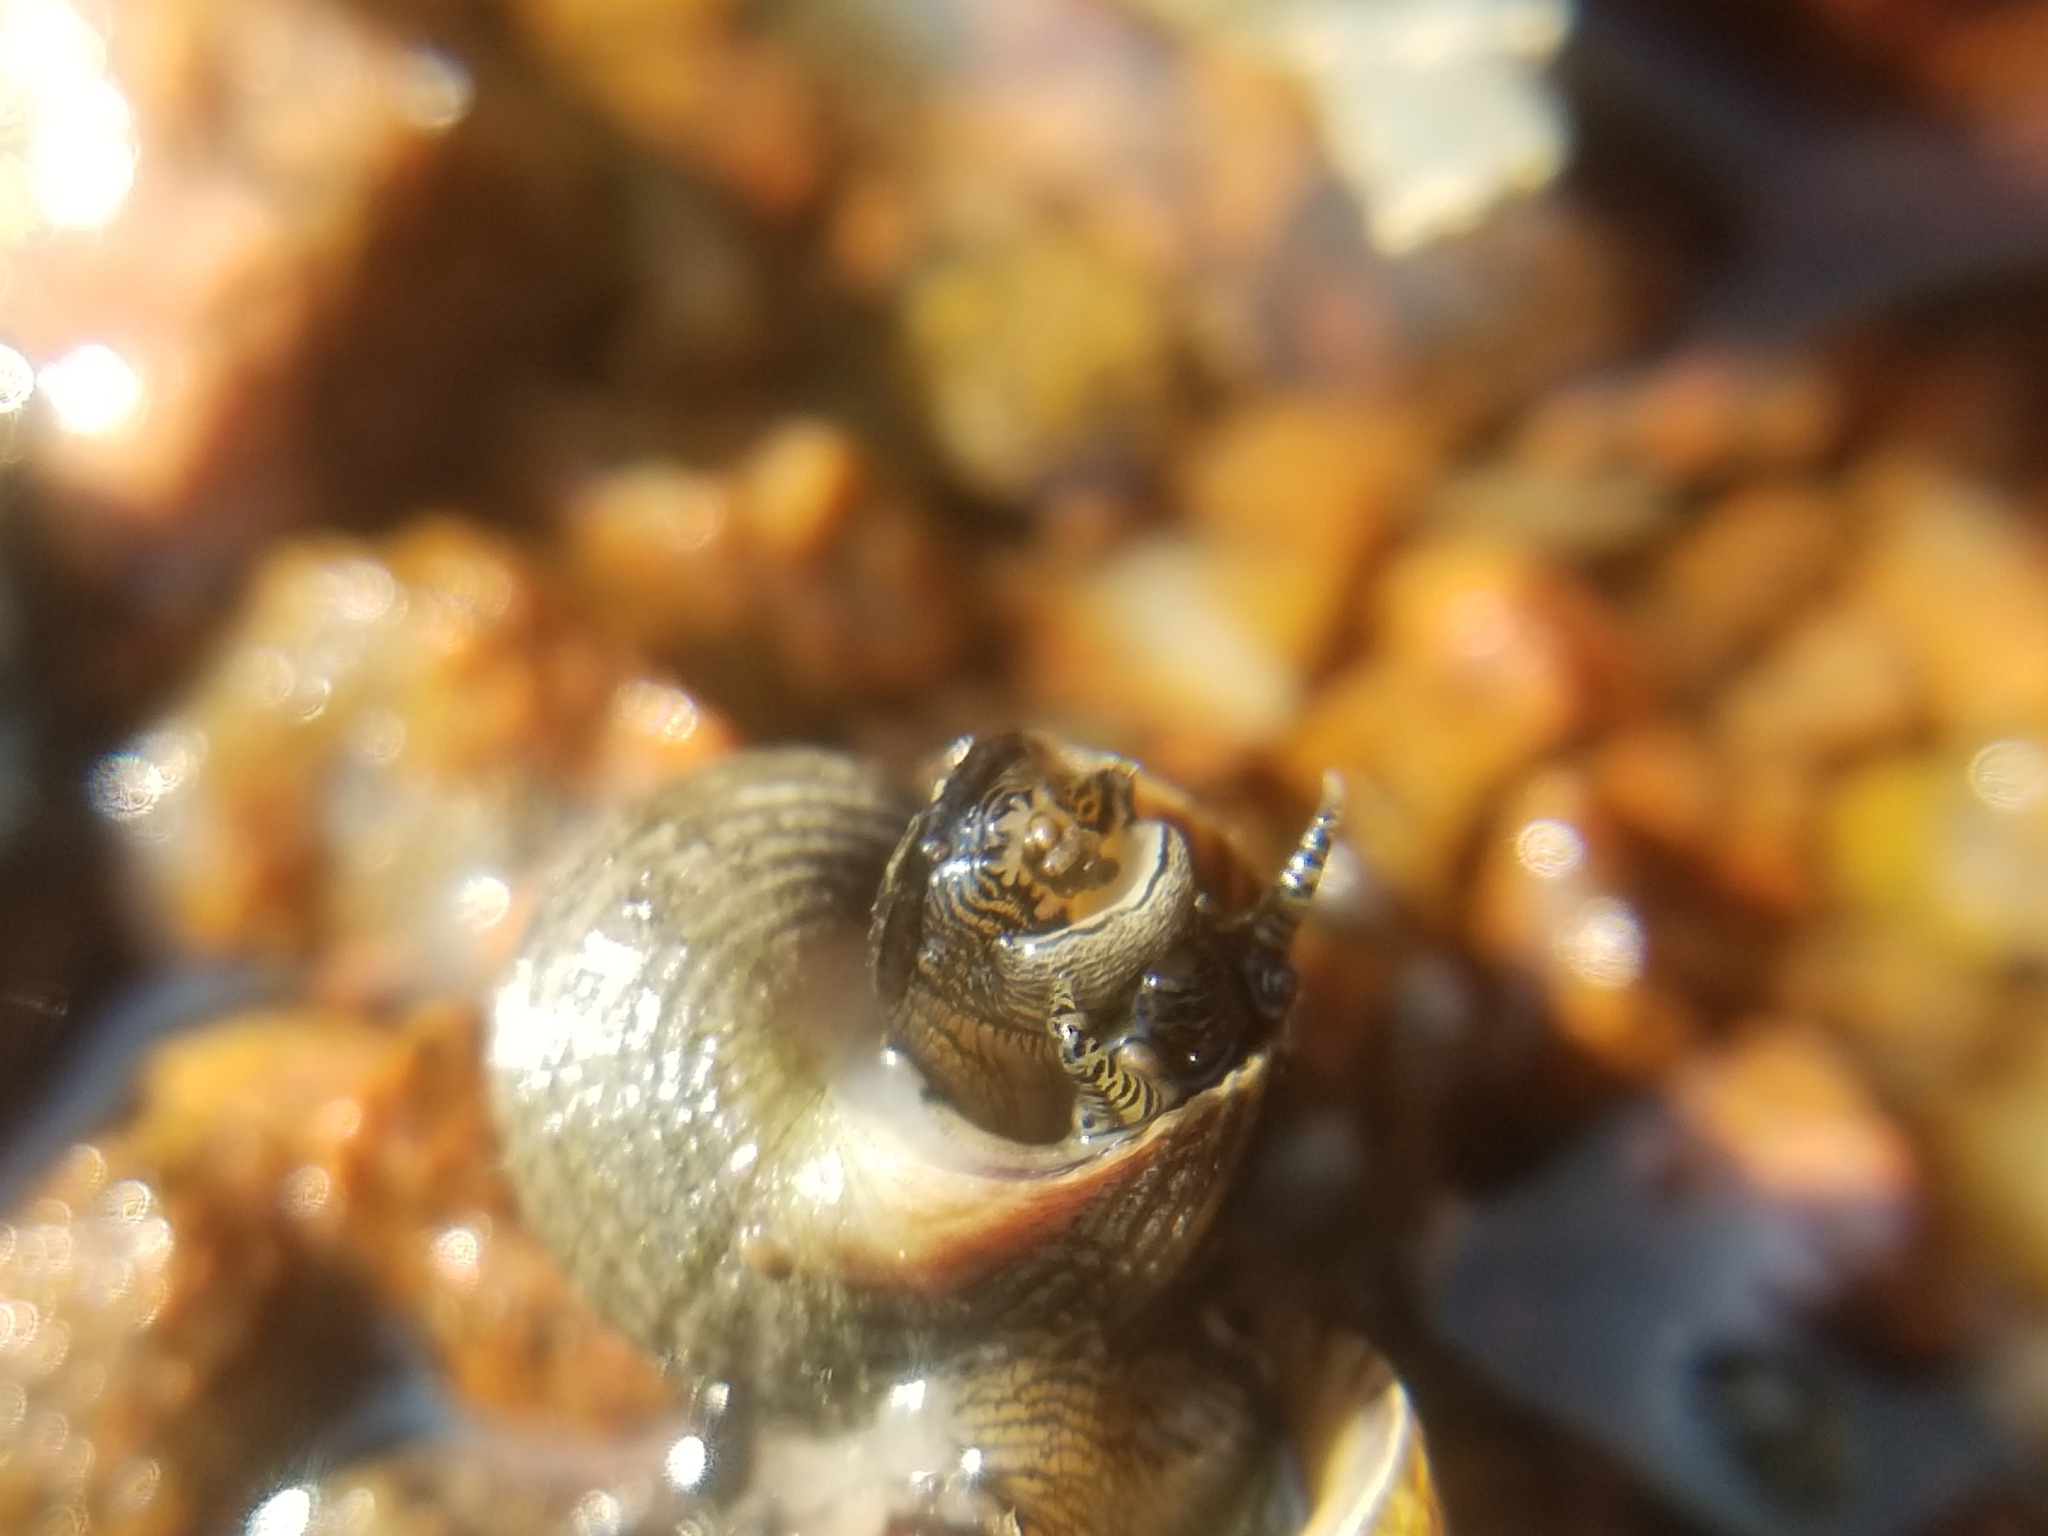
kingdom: Animalia
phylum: Mollusca
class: Gastropoda
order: Littorinimorpha
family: Littorinidae
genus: Littorina
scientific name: Littorina littorea
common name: Common periwinkle
